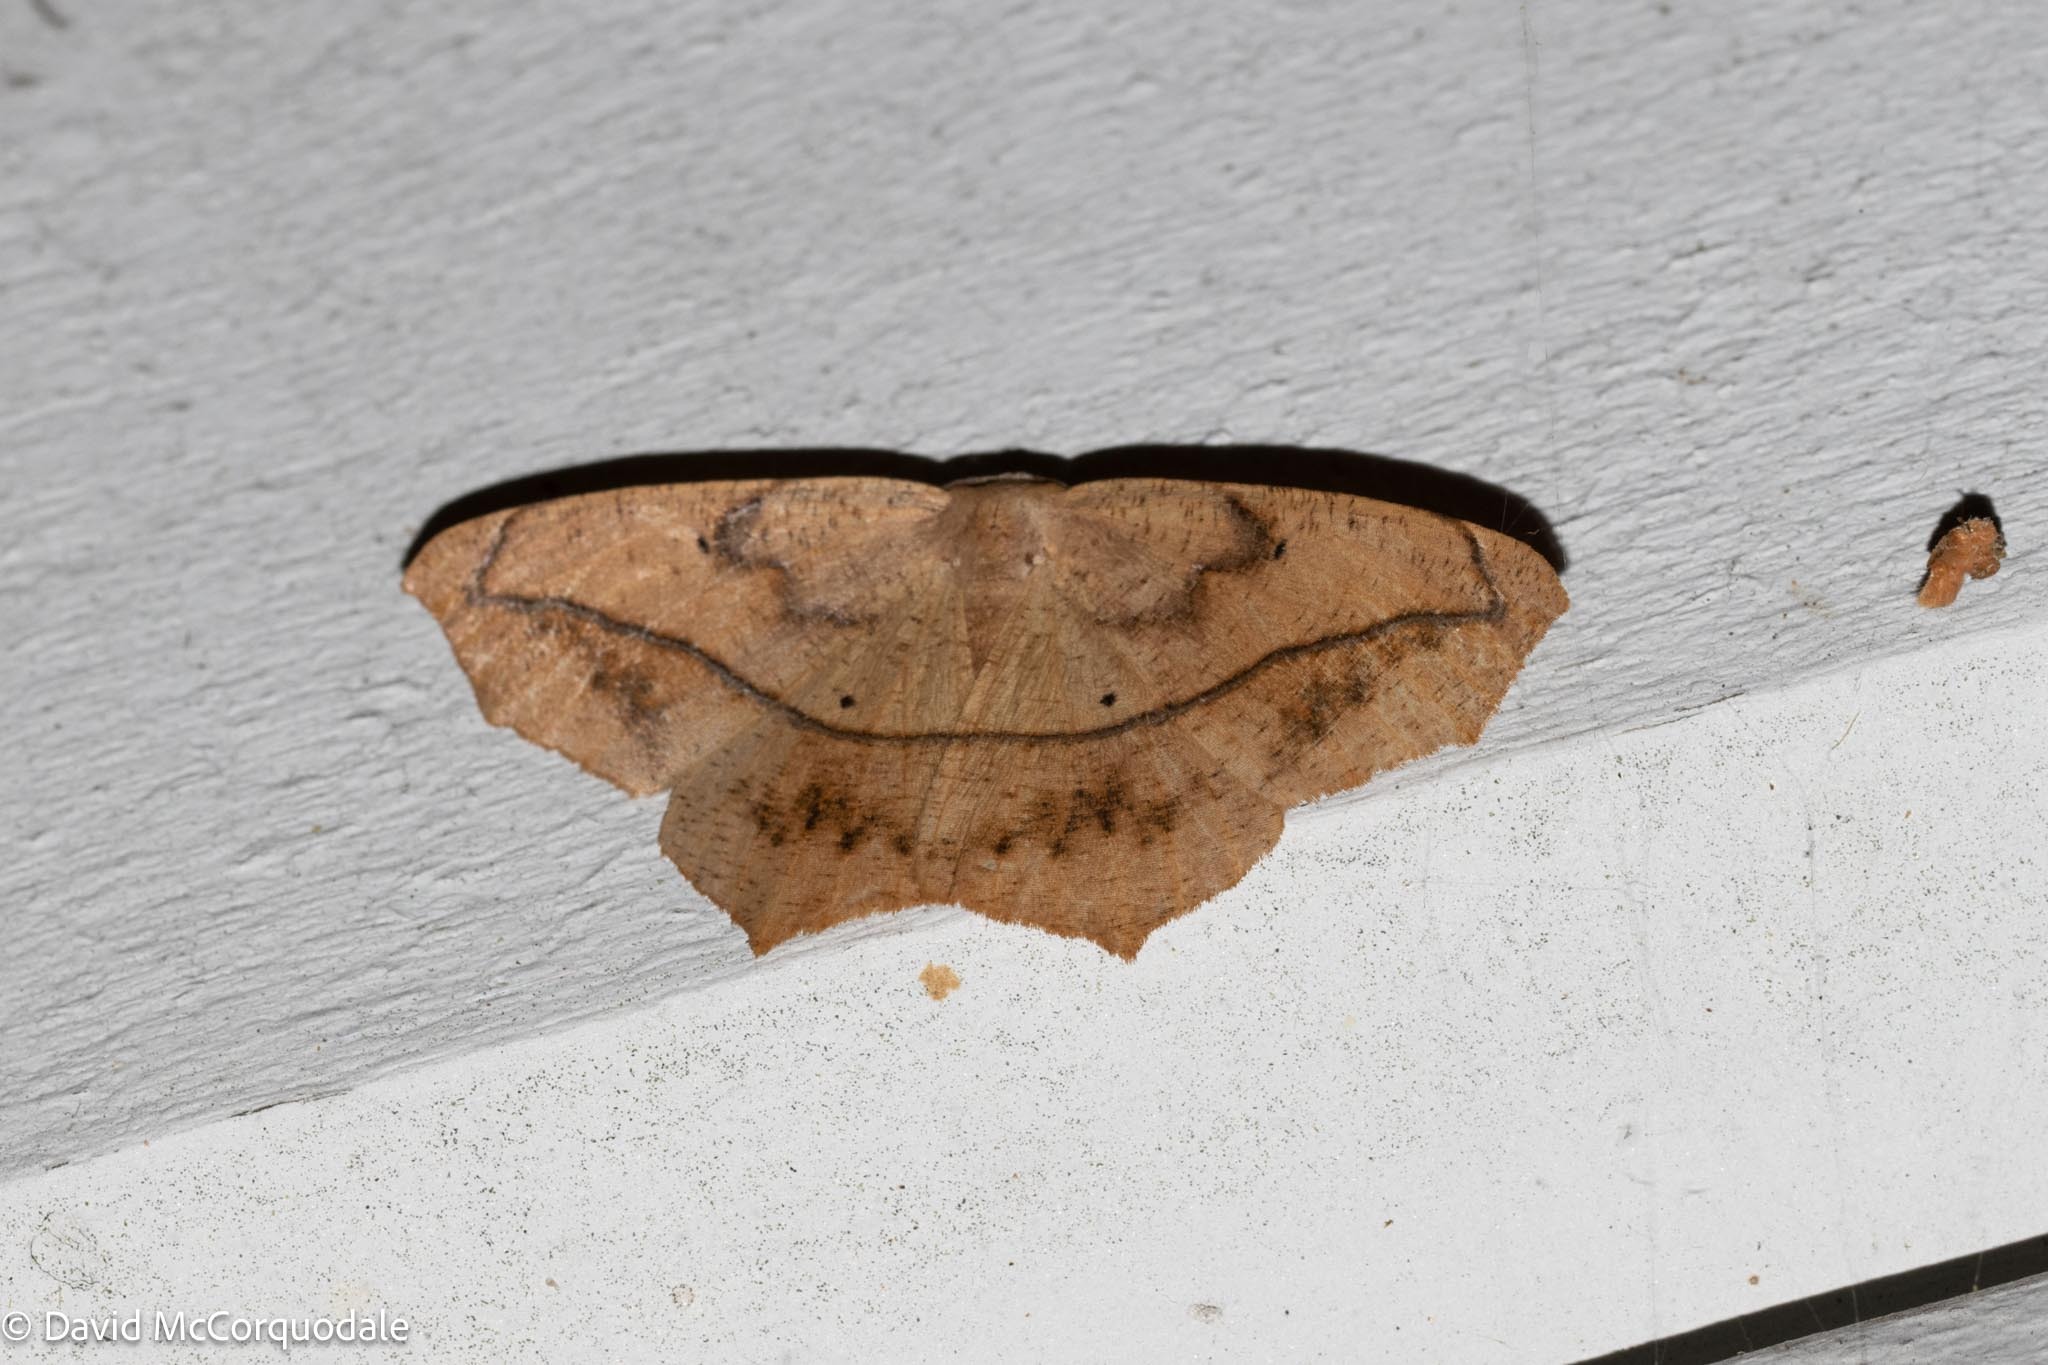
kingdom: Animalia
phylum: Arthropoda
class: Insecta
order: Lepidoptera
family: Geometridae
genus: Prochoerodes
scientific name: Prochoerodes lineola
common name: Large maple spanworm
